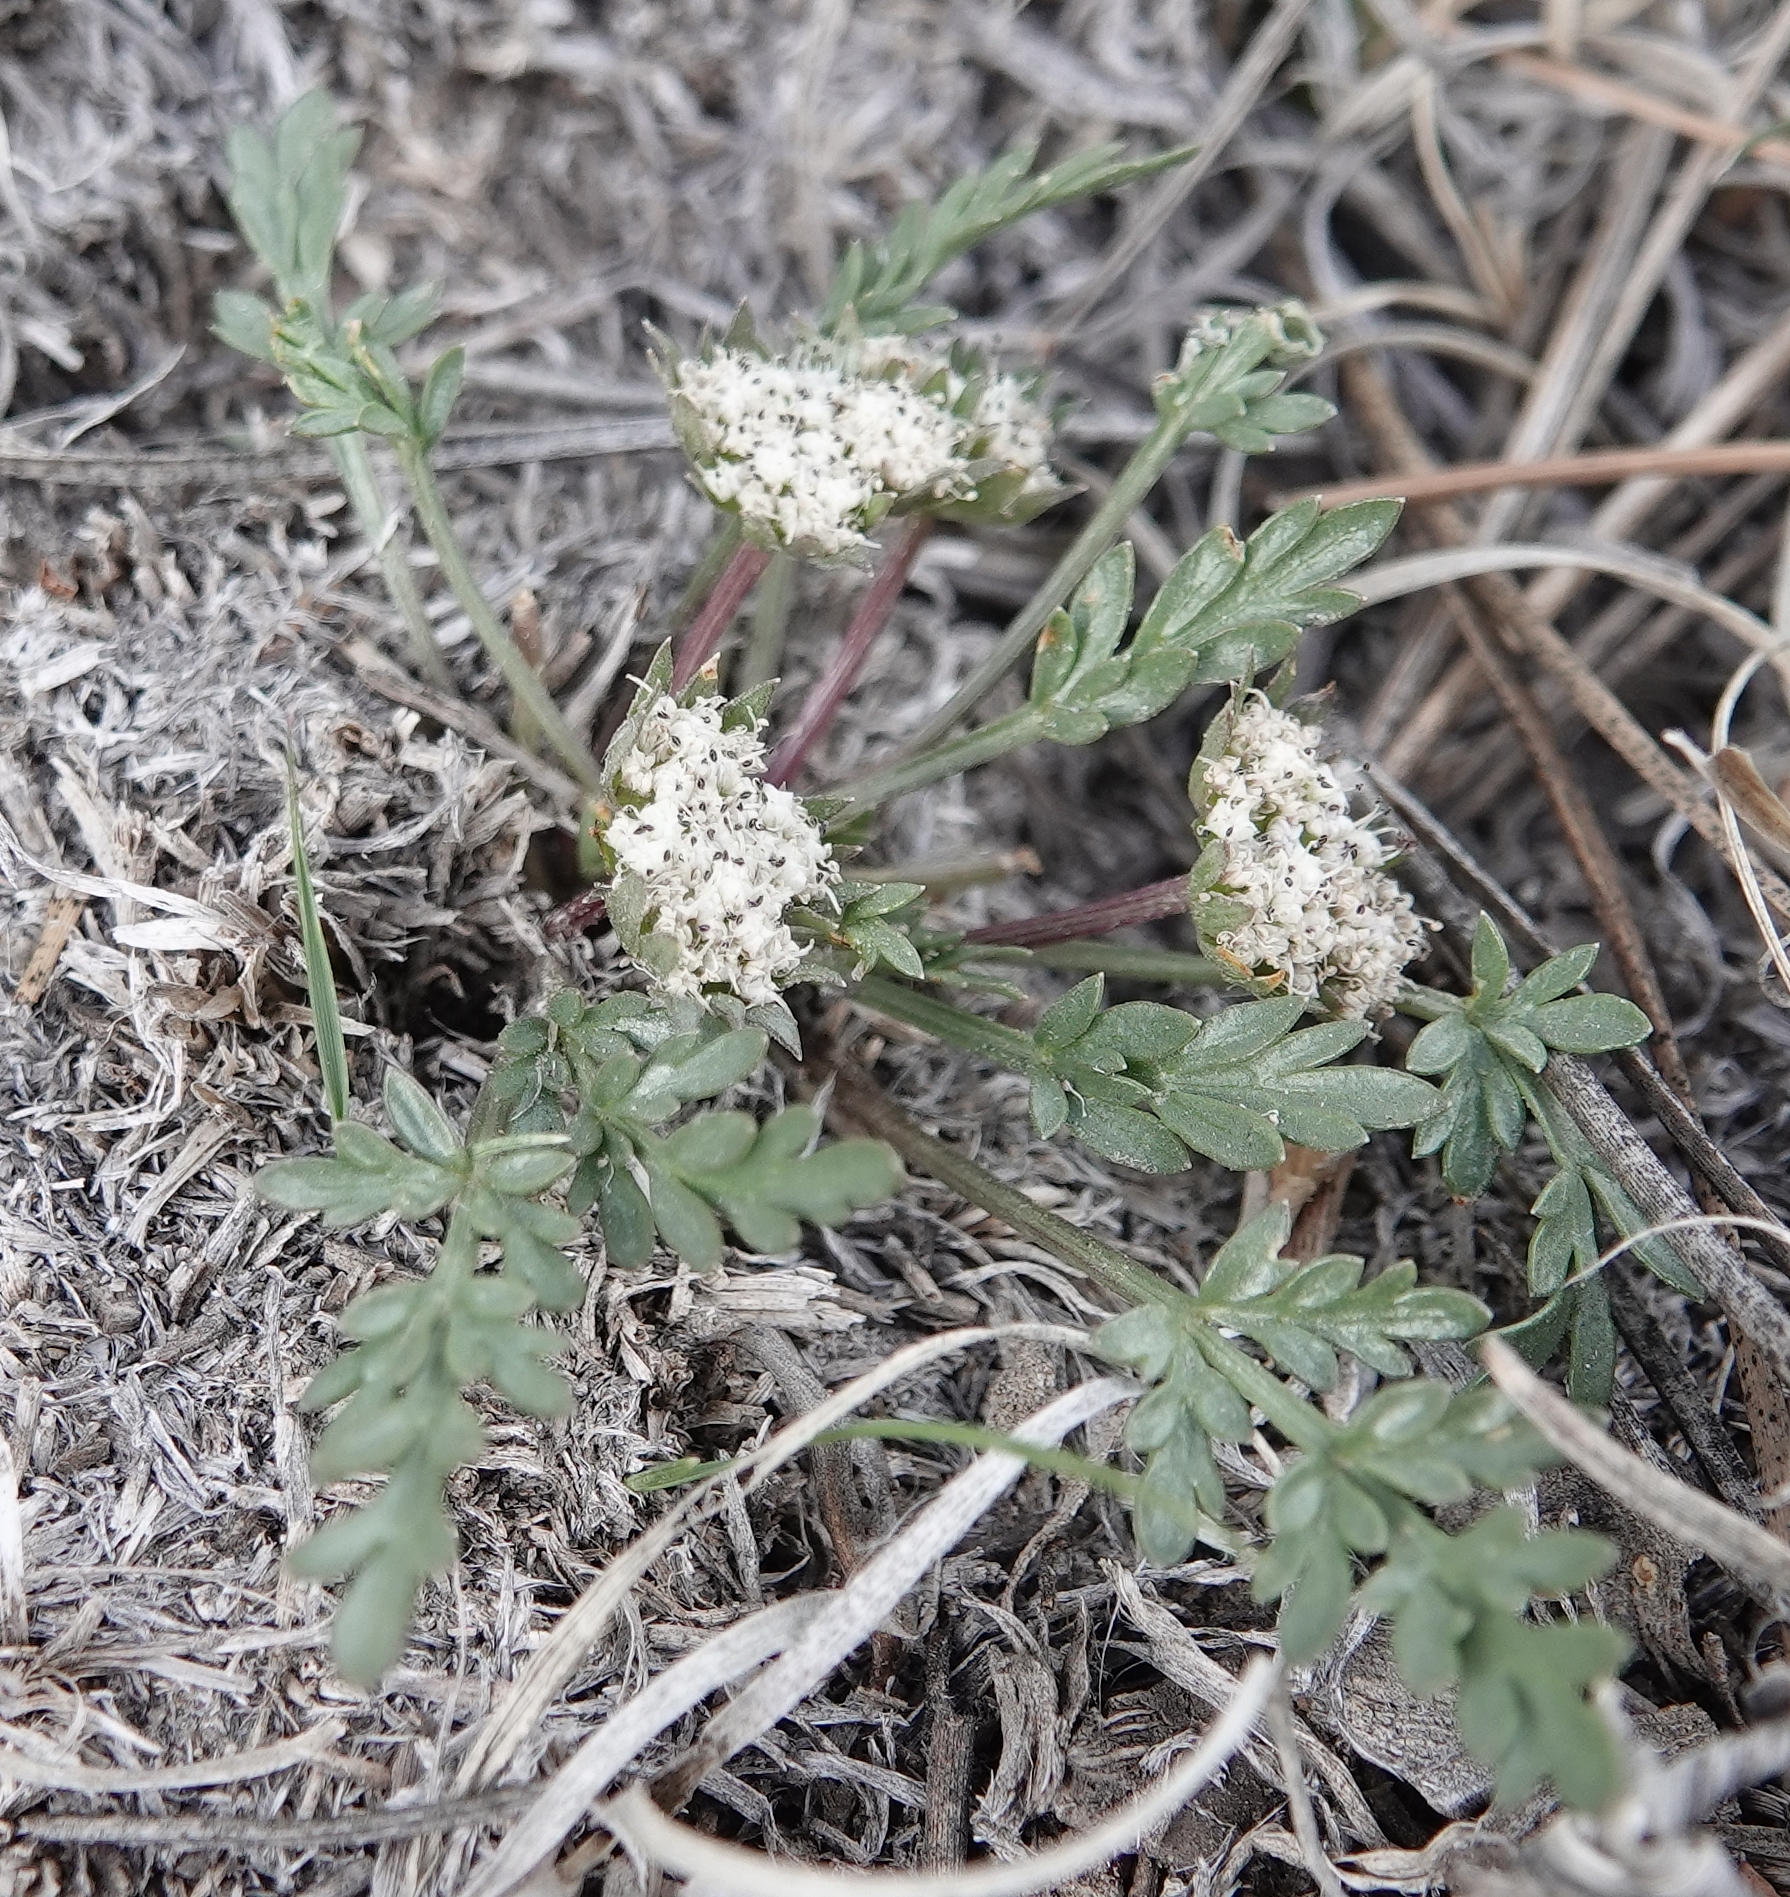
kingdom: Plantae
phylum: Tracheophyta
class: Magnoliopsida
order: Apiales
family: Apiaceae
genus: Cymopterus
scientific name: Cymopterus glomeratus
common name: Plains spring parsley
